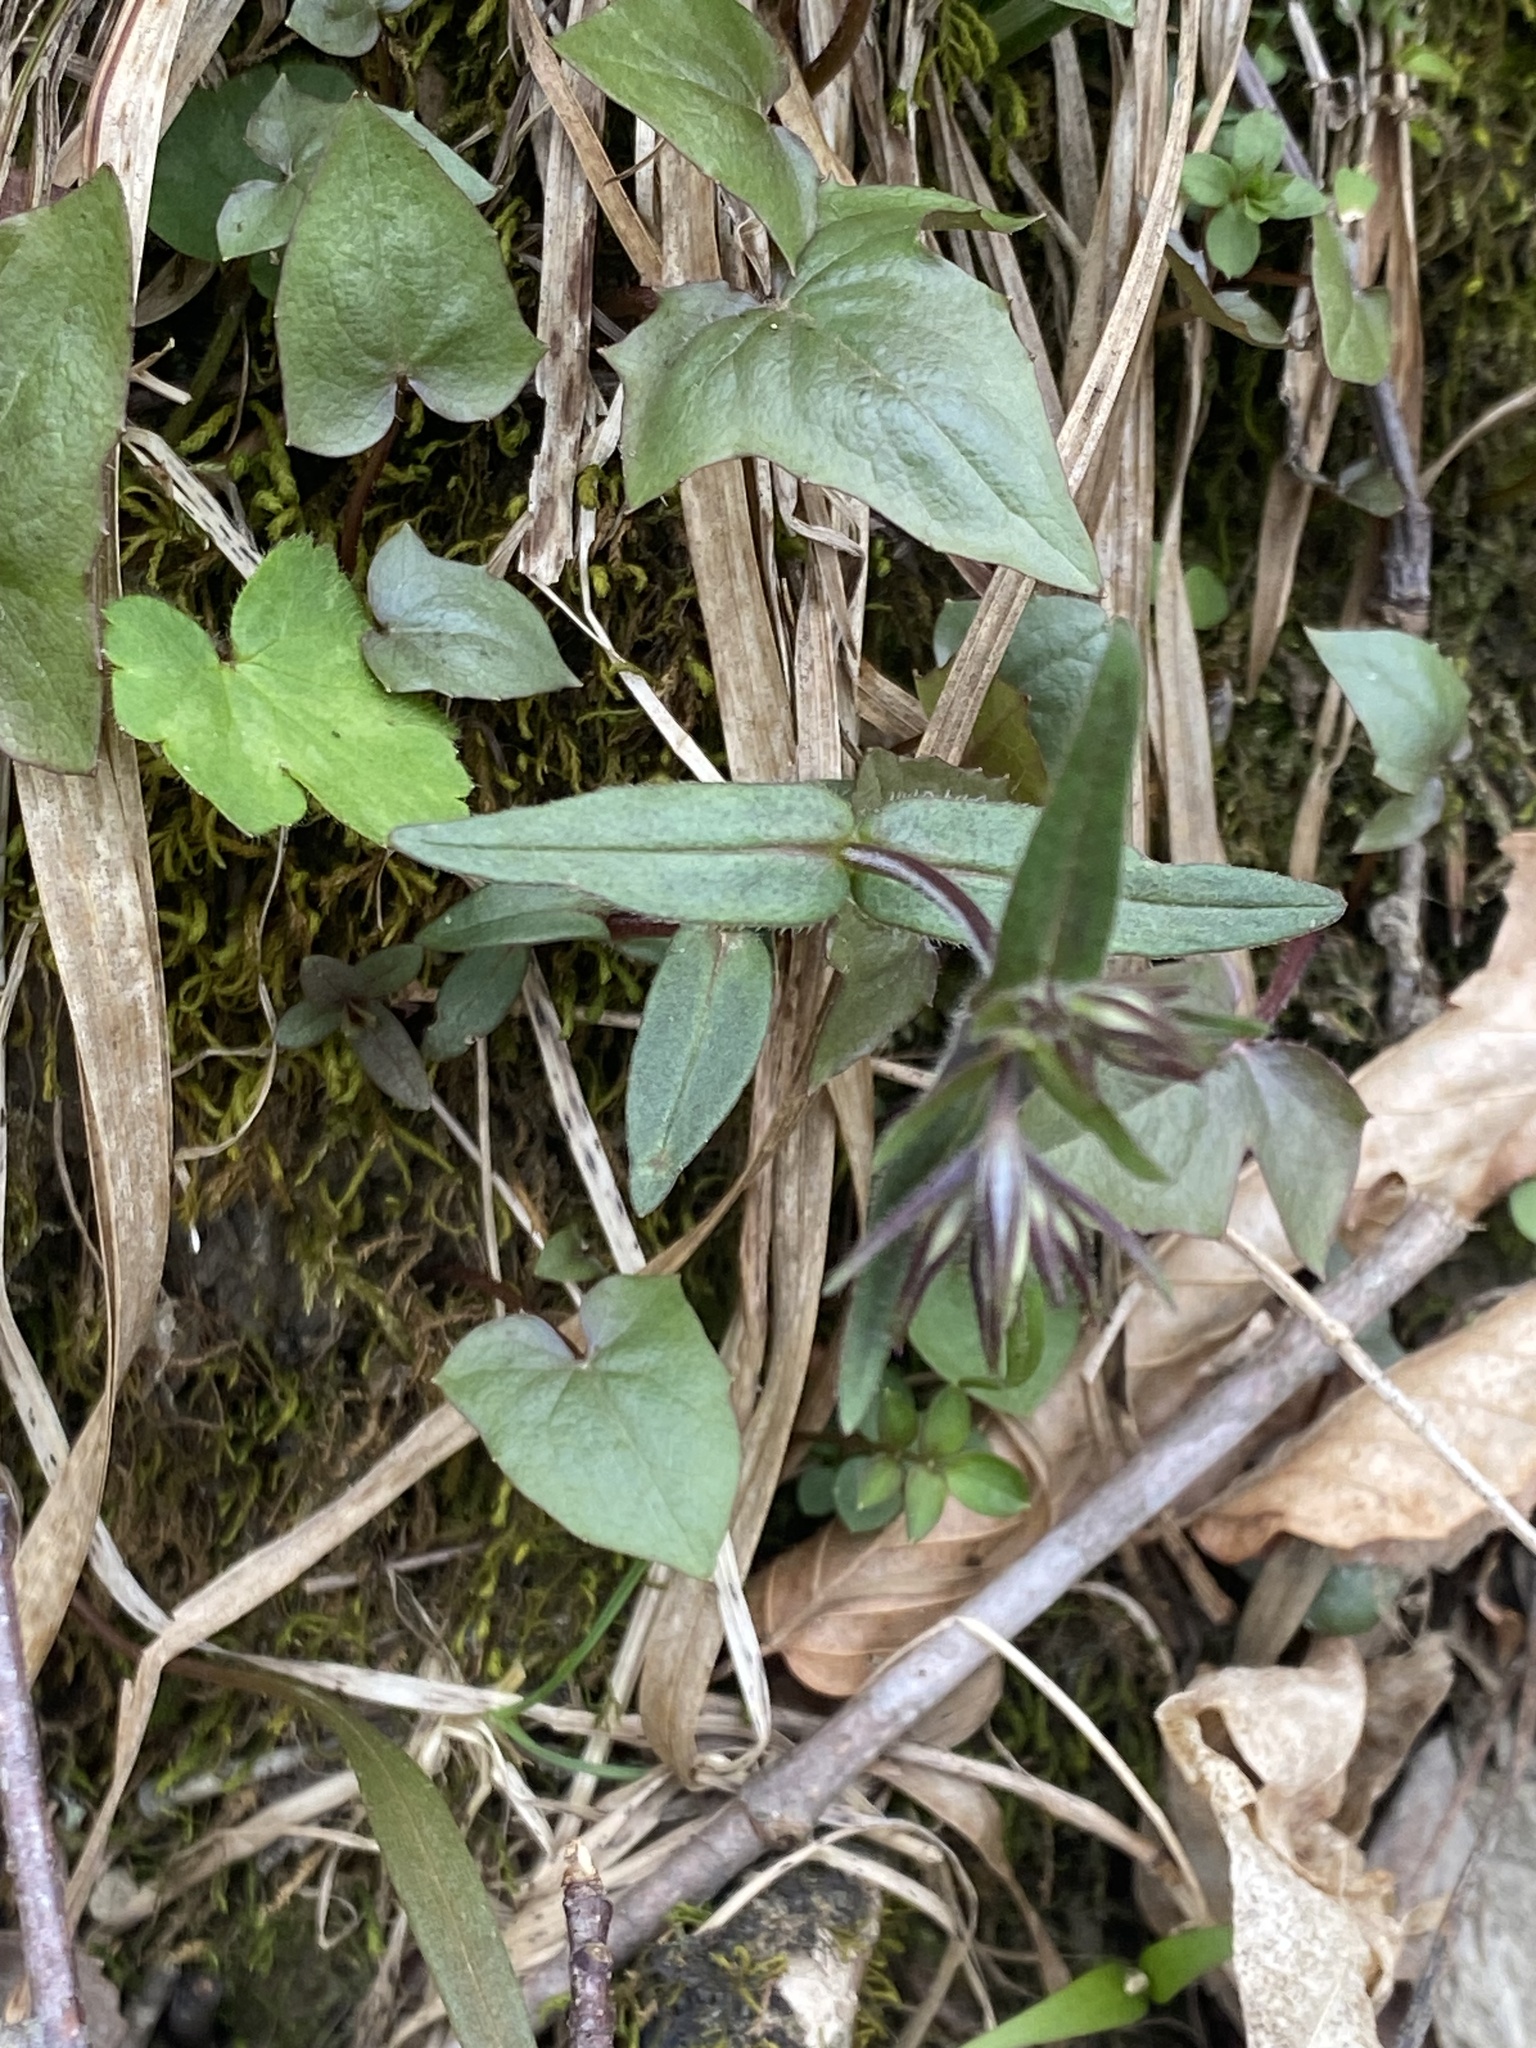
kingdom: Plantae
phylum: Tracheophyta
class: Magnoliopsida
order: Ericales
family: Polemoniaceae
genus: Phlox
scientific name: Phlox divaricata
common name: Blue phlox
